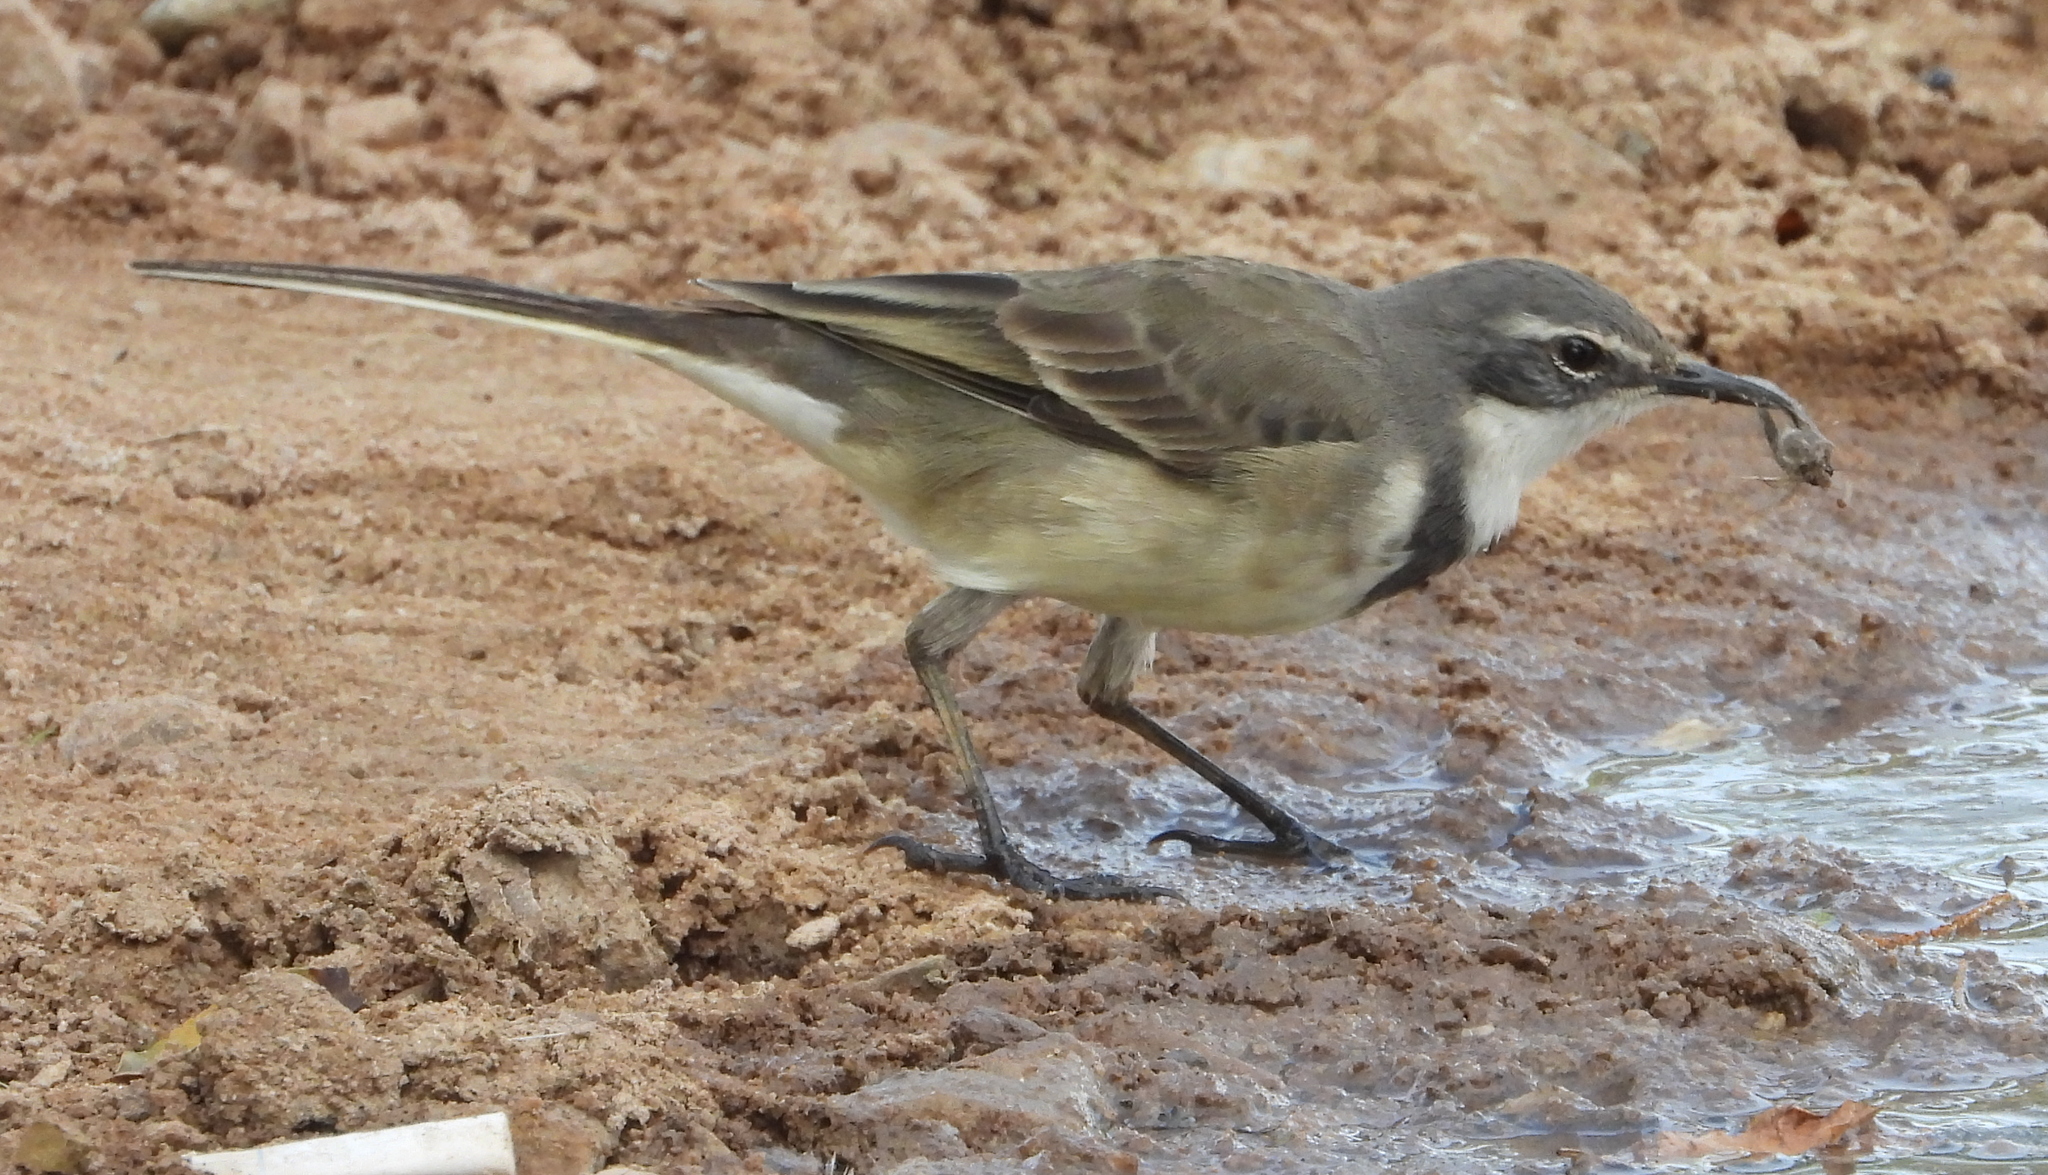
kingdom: Animalia
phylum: Chordata
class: Aves
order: Passeriformes
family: Motacillidae
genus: Motacilla
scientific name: Motacilla capensis
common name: Cape wagtail
